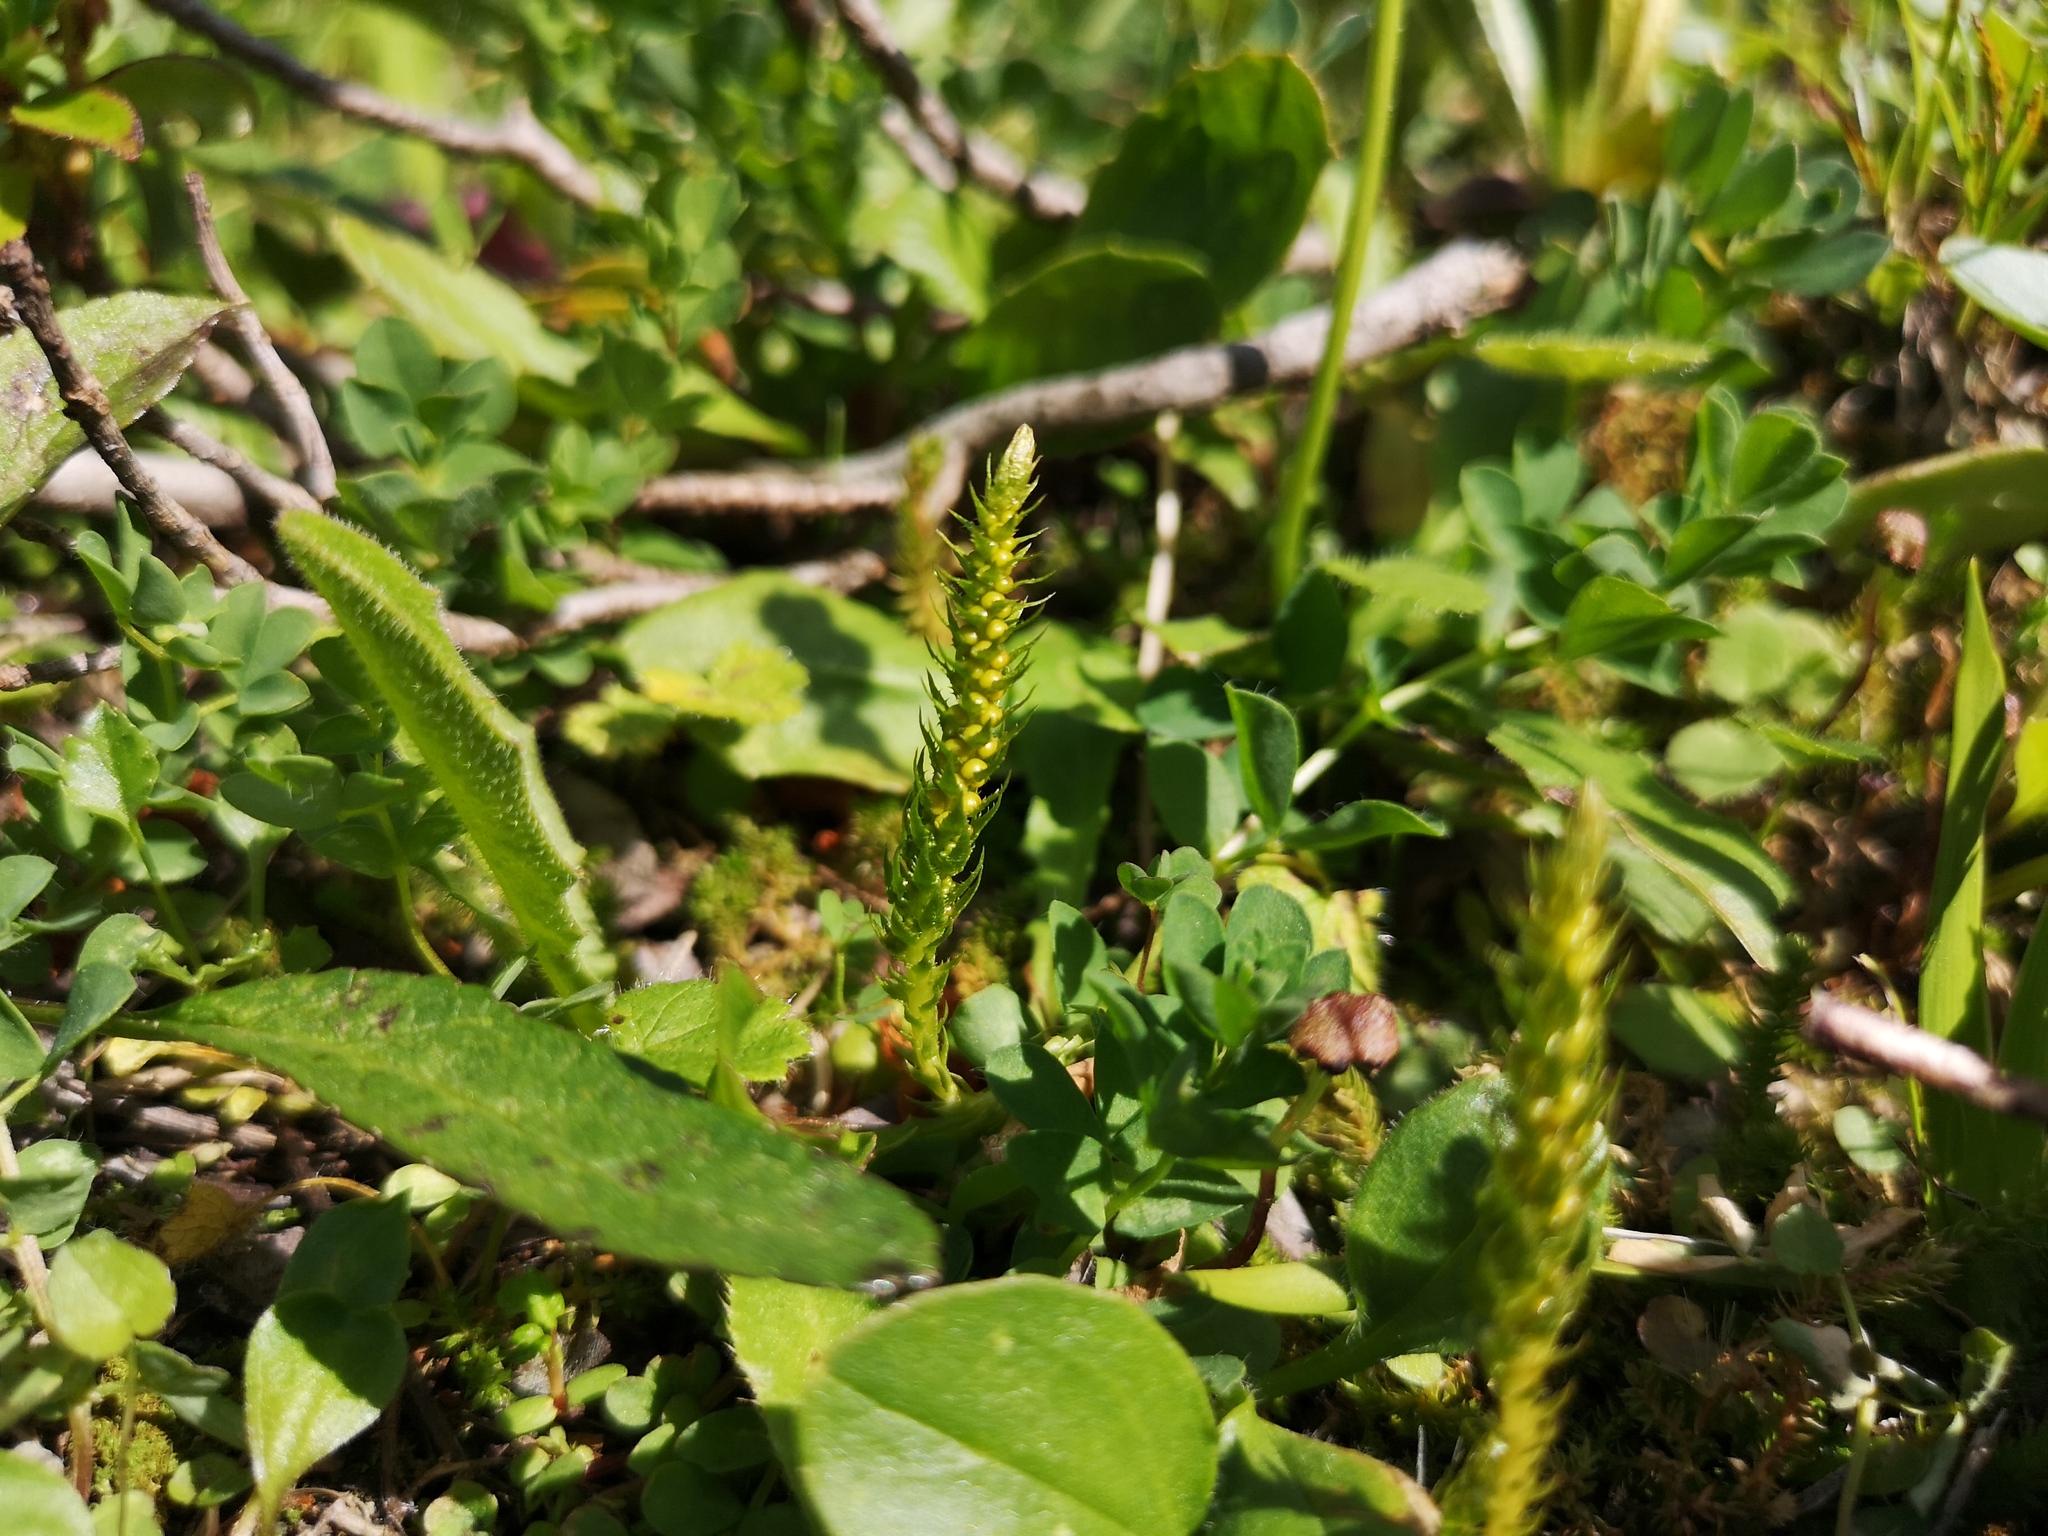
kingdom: Plantae
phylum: Tracheophyta
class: Lycopodiopsida
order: Selaginellales
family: Selaginellaceae
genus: Selaginella
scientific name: Selaginella selaginoides
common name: Prickly mountain-moss
